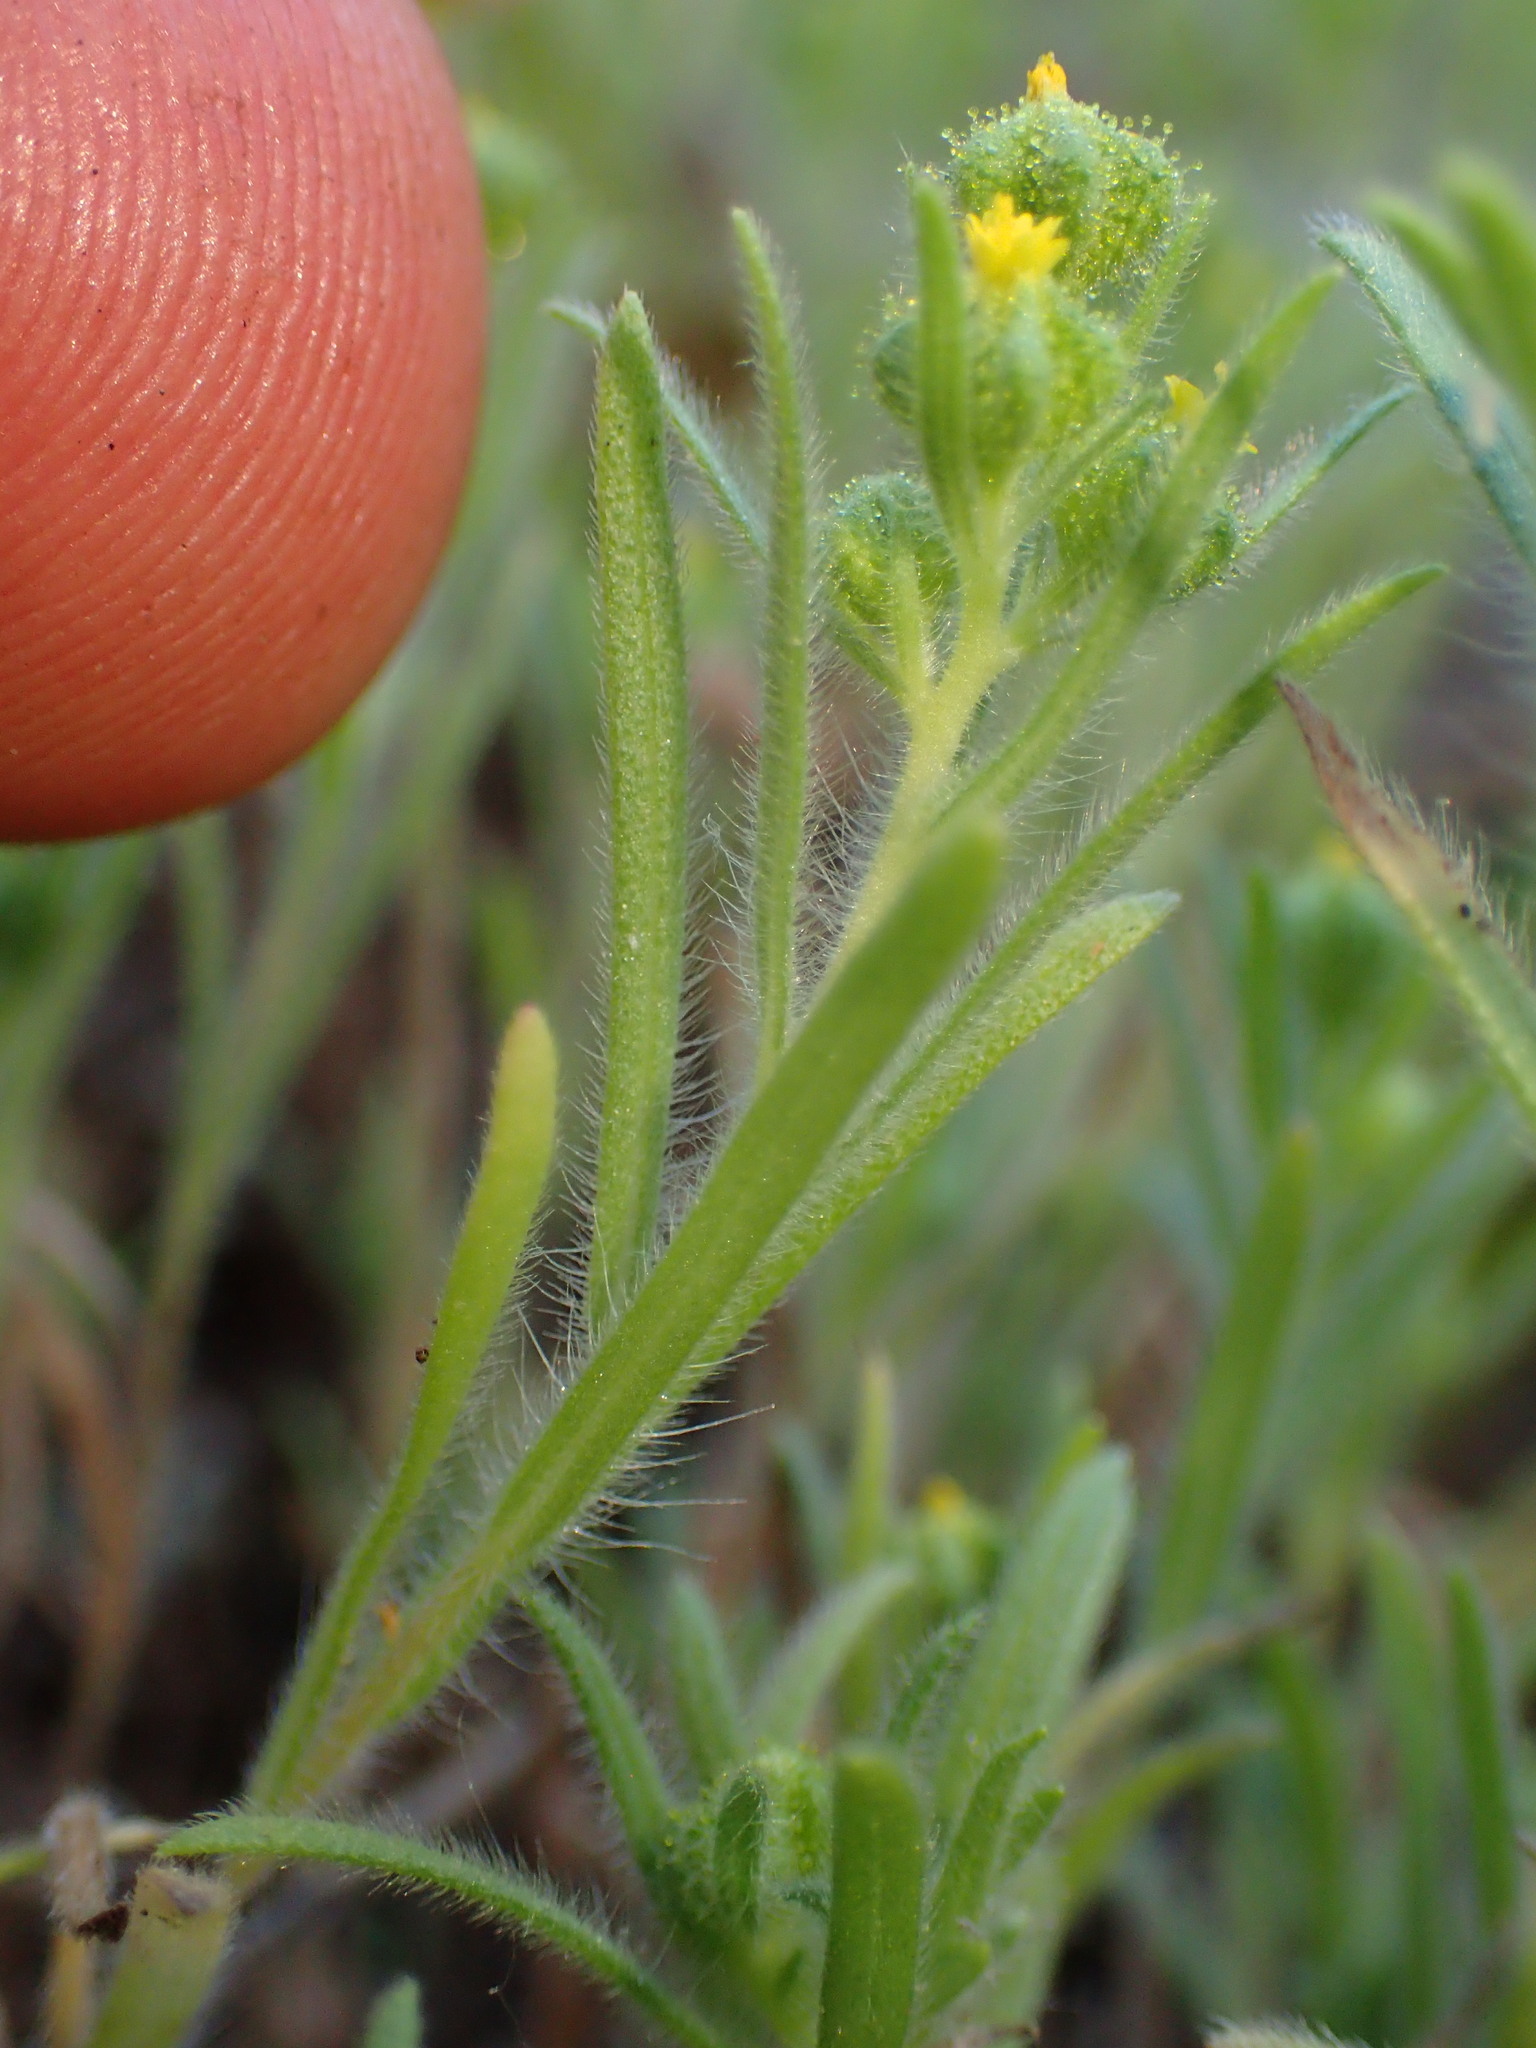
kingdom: Plantae
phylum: Tracheophyta
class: Magnoliopsida
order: Asterales
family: Asteraceae
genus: Madia
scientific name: Madia exigua
